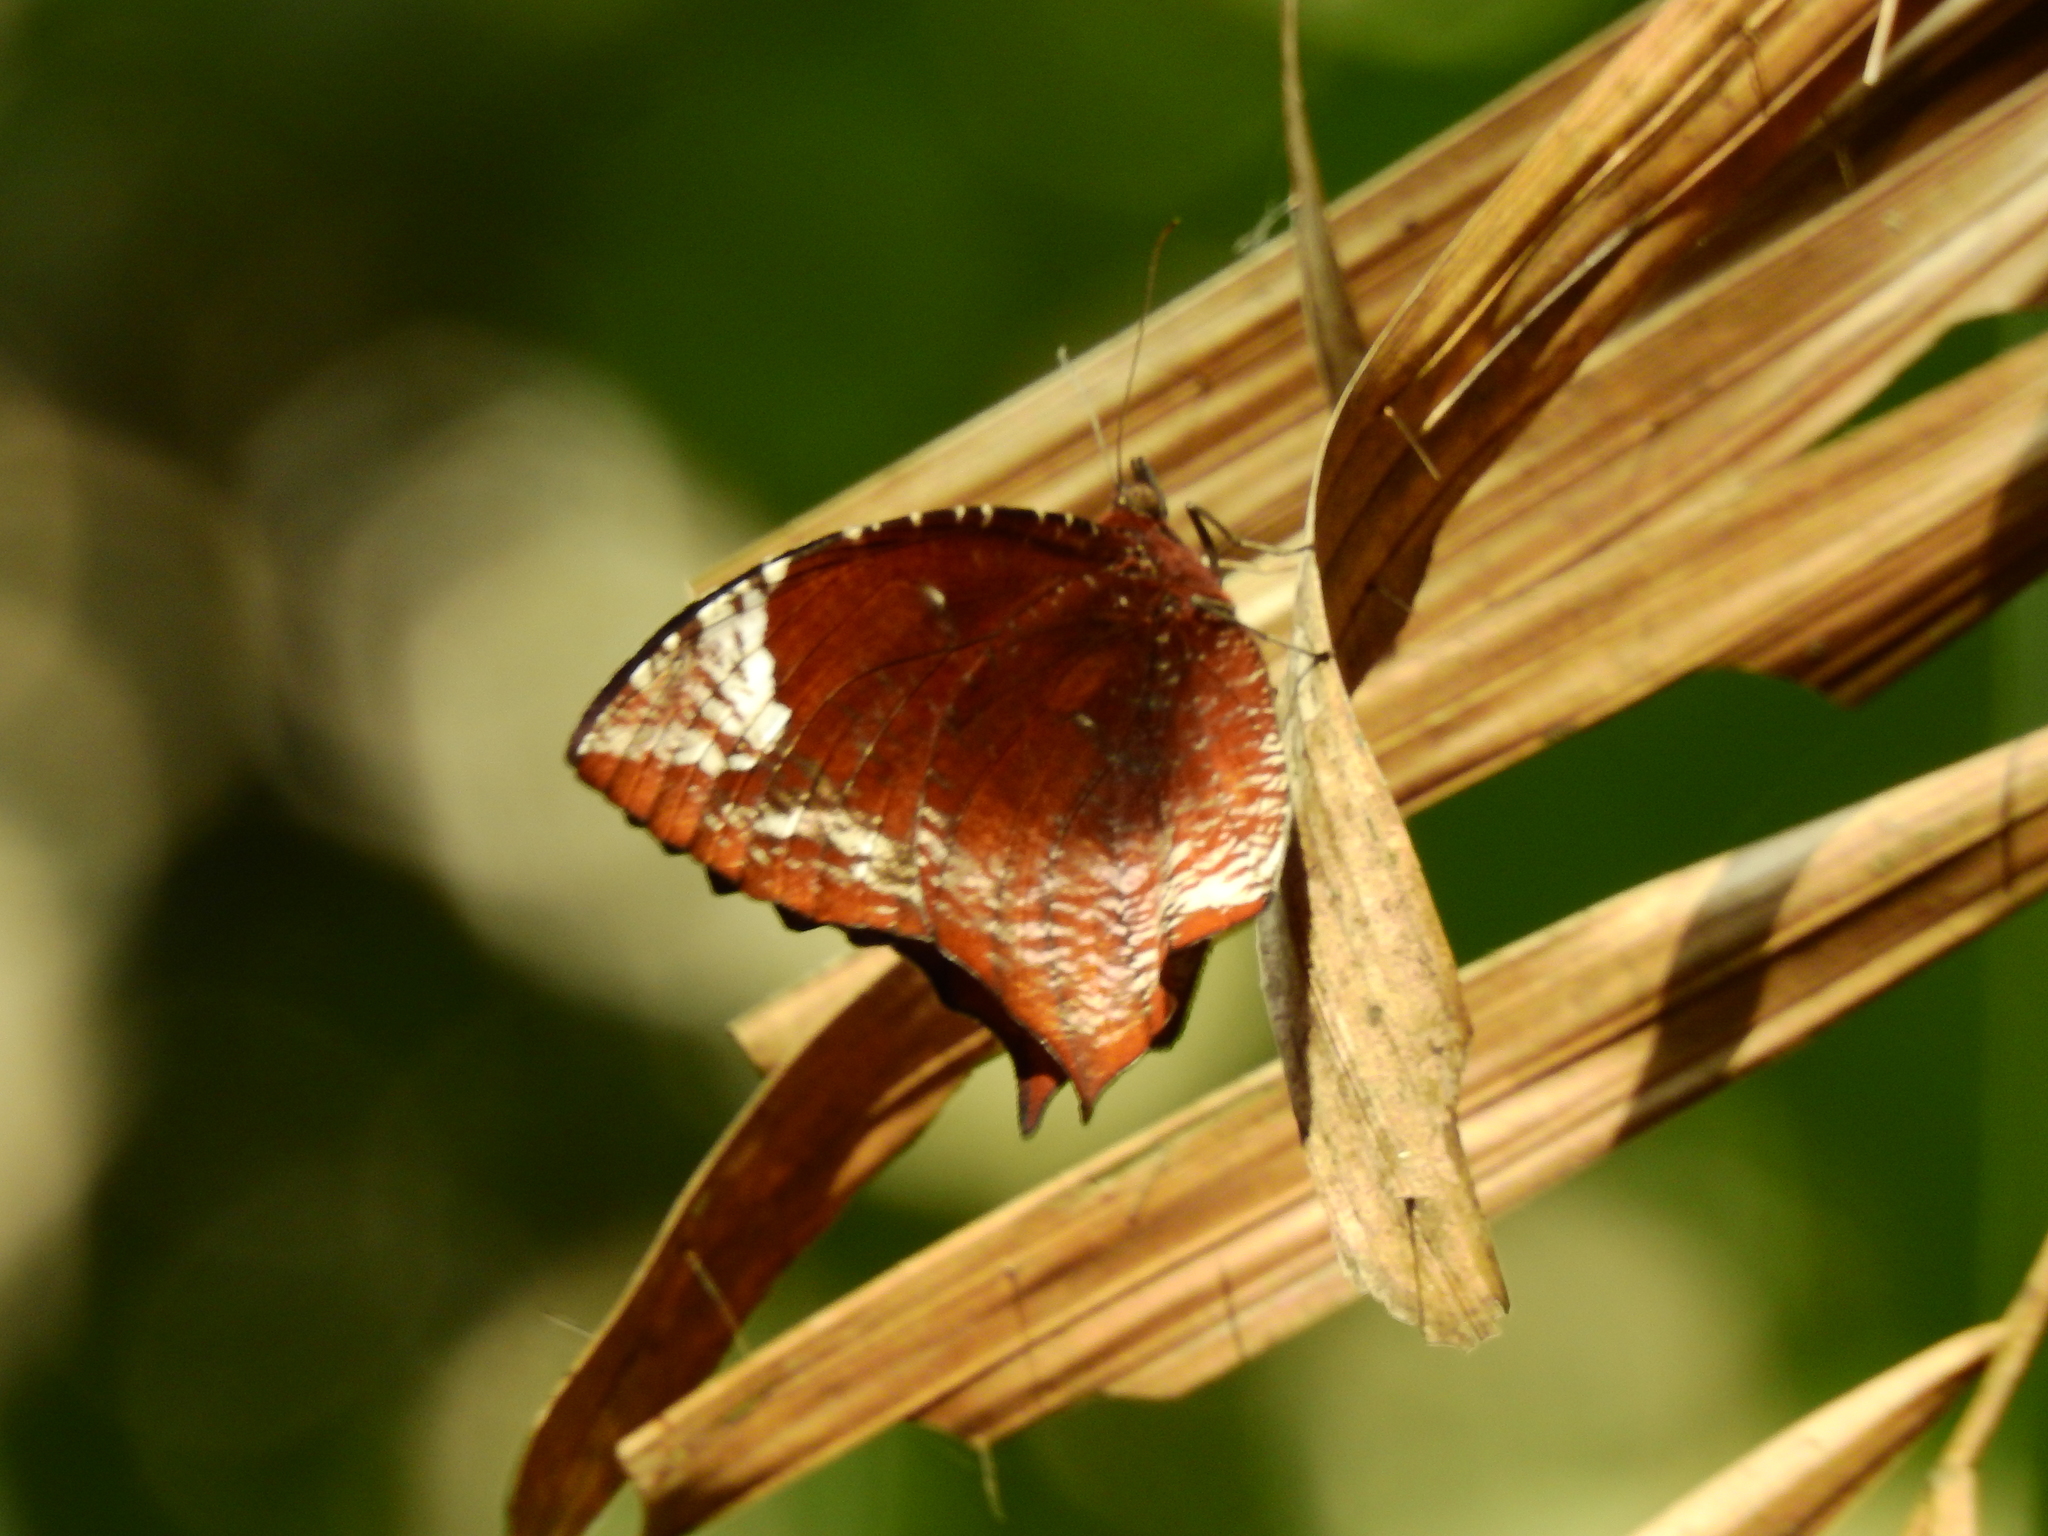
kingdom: Animalia
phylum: Arthropoda
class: Insecta
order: Lepidoptera
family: Nymphalidae
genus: Elymnias
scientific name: Elymnias caudata
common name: Tailed palmfly
